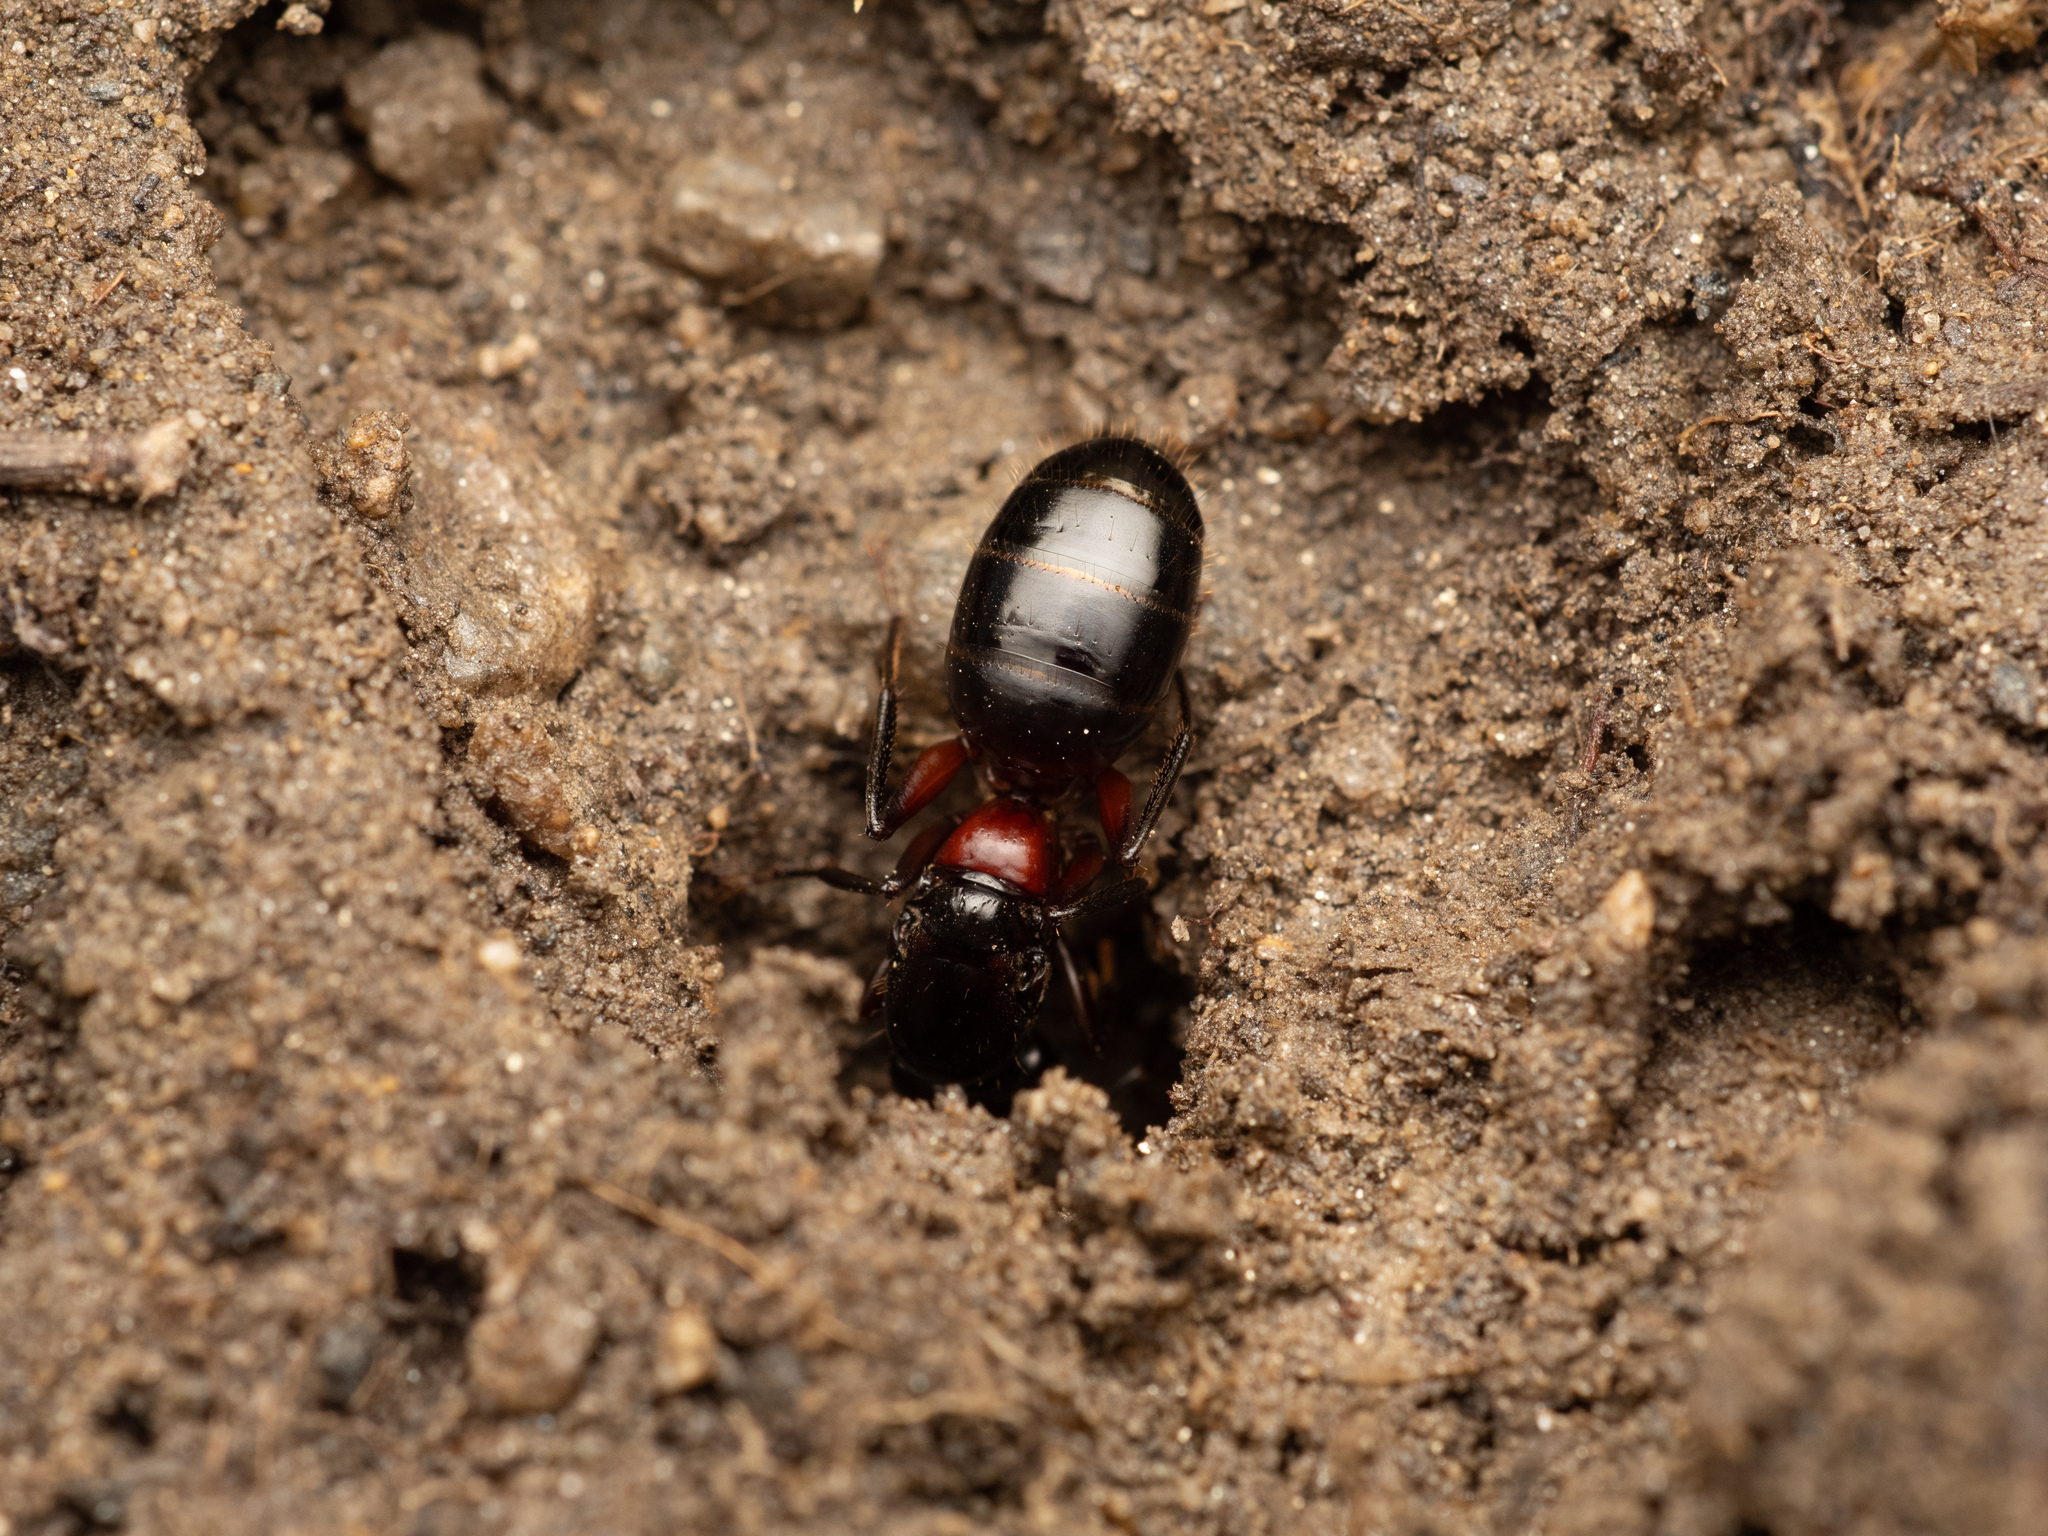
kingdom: Animalia
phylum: Arthropoda
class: Insecta
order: Hymenoptera
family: Formicidae
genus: Camponotus
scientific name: Camponotus ligniperdus
